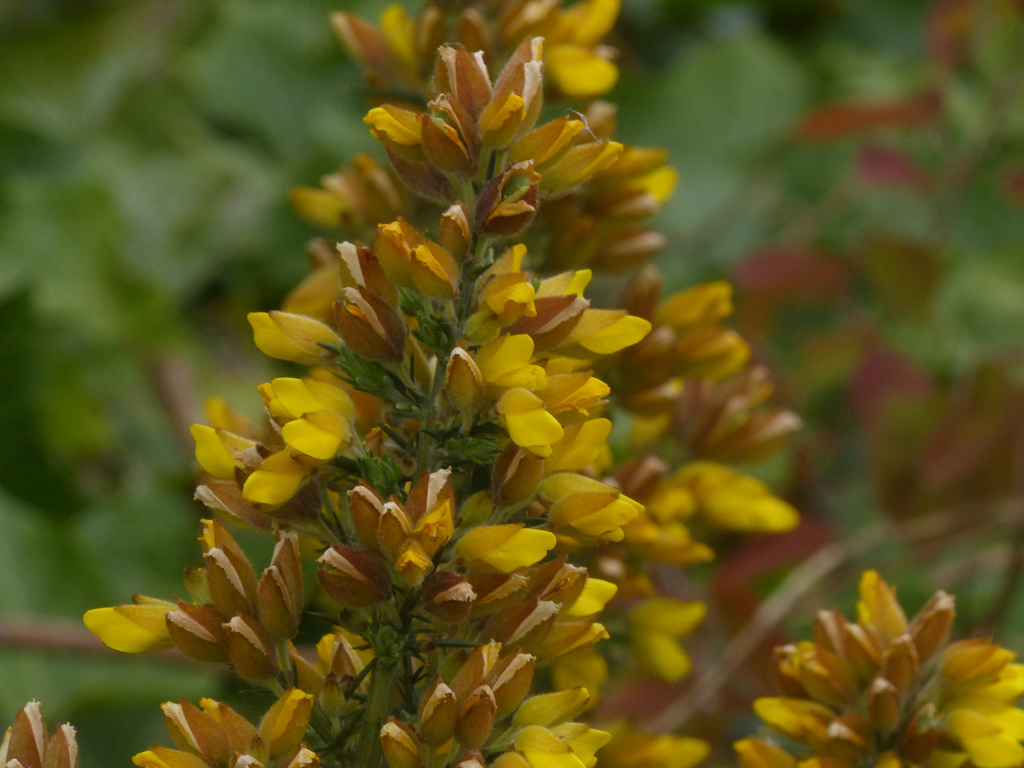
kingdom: Plantae
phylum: Tracheophyta
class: Magnoliopsida
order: Fabales
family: Fabaceae
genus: Ulex
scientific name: Ulex europaeus
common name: Common gorse
